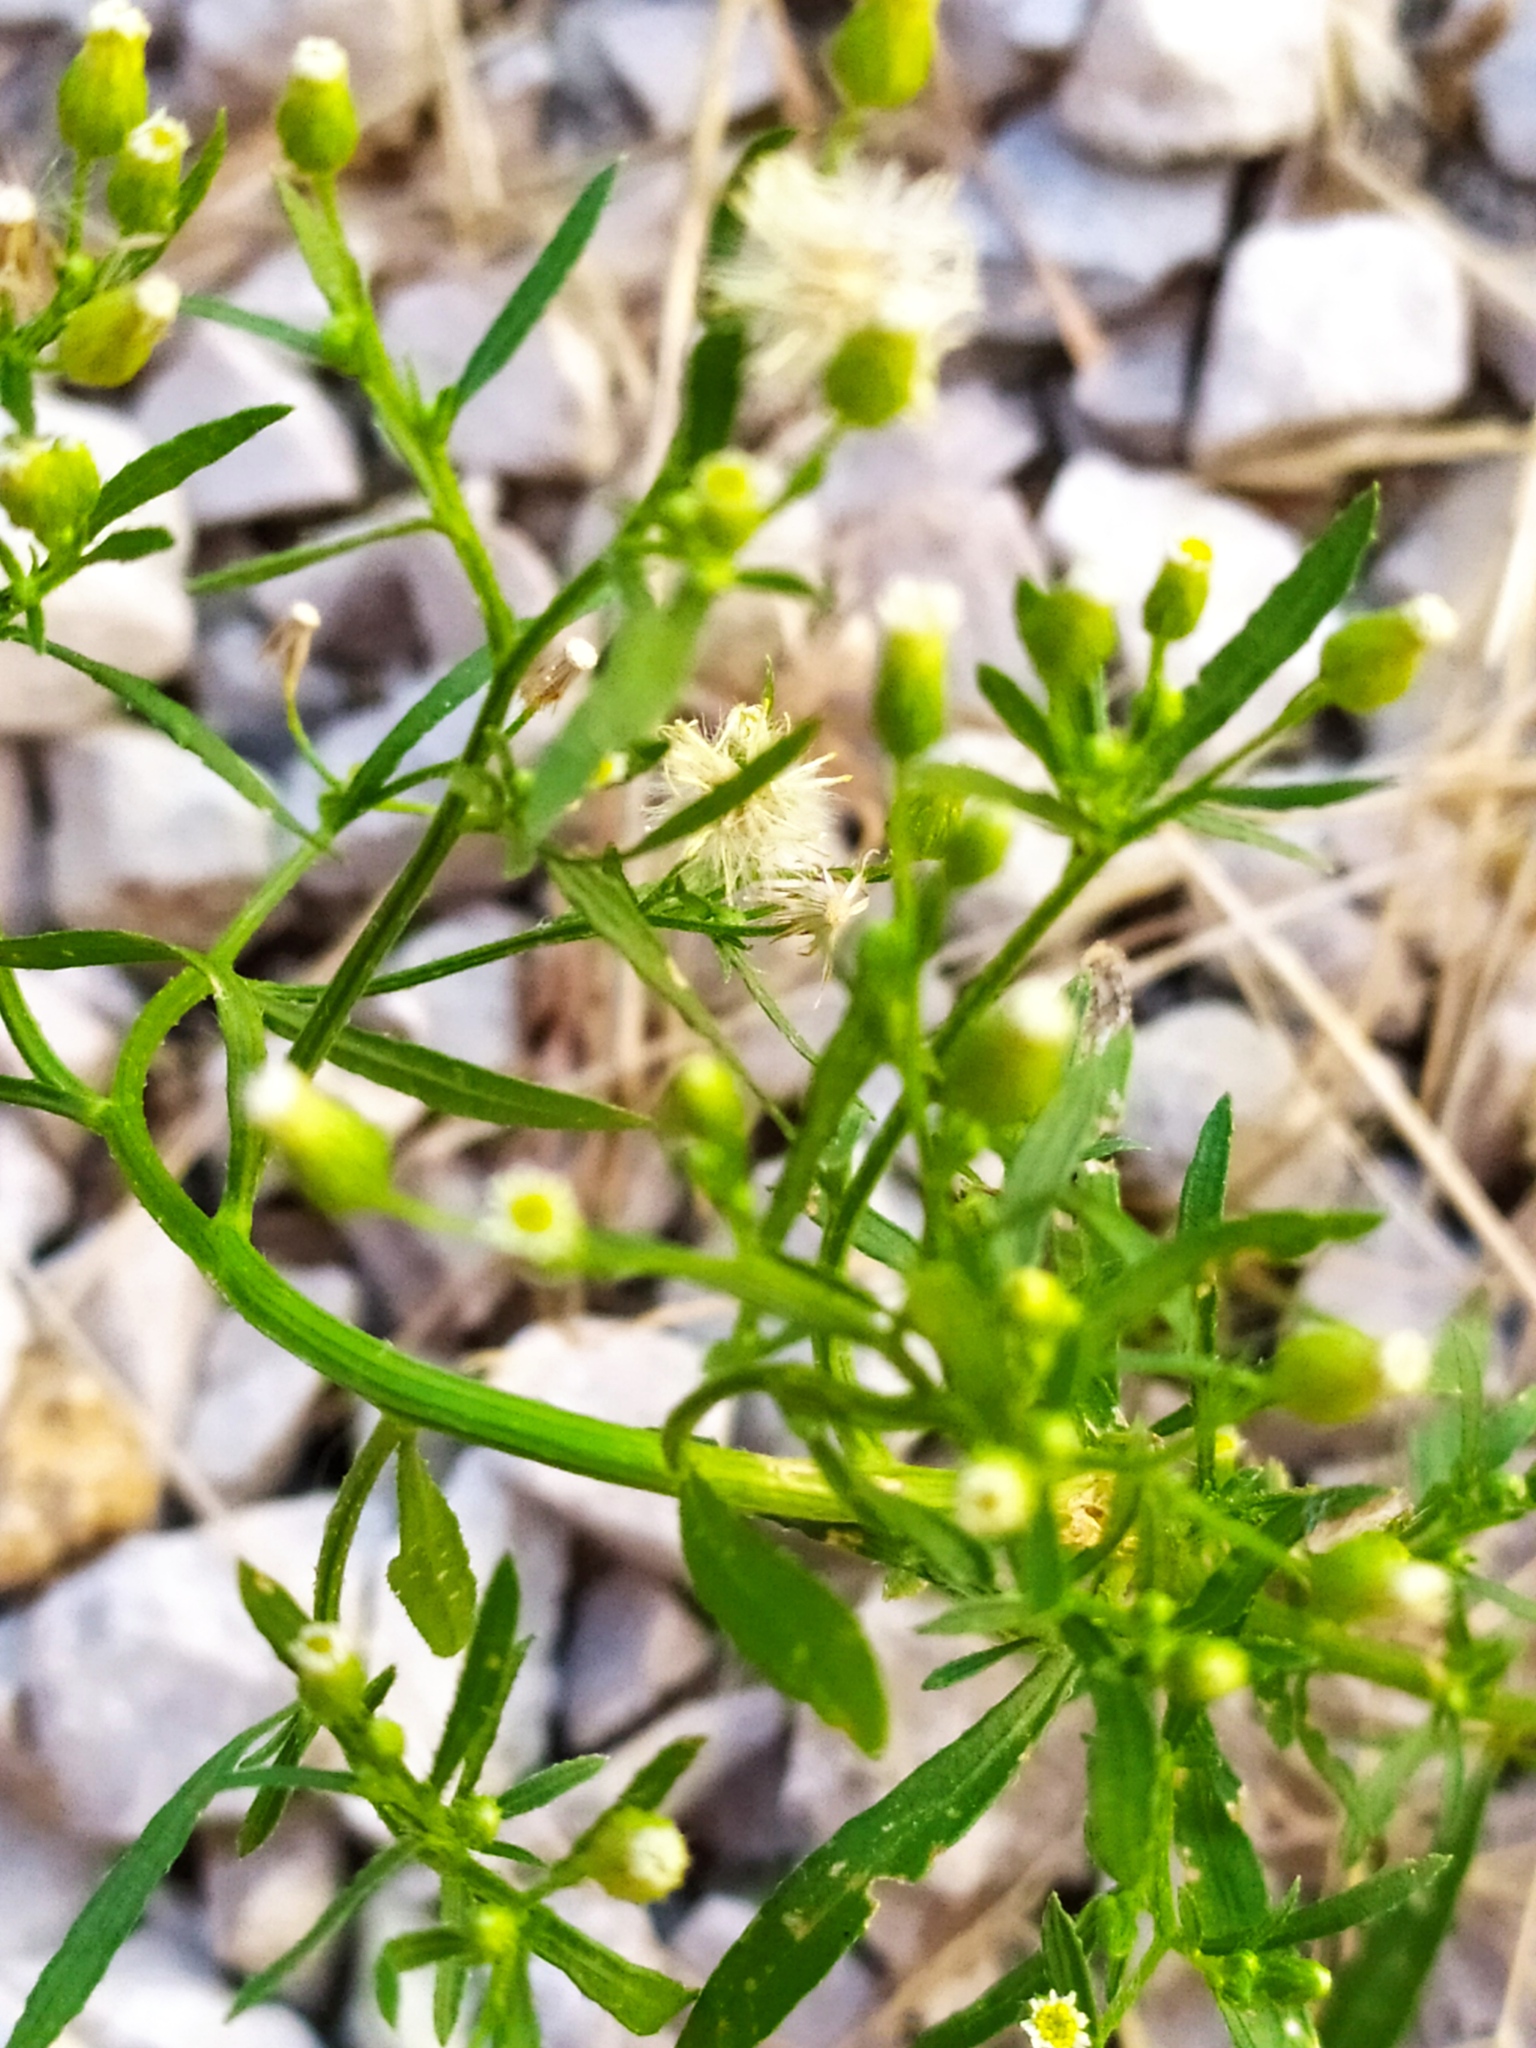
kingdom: Plantae
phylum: Tracheophyta
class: Magnoliopsida
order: Asterales
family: Asteraceae
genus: Erigeron
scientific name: Erigeron canadensis
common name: Canadian fleabane
